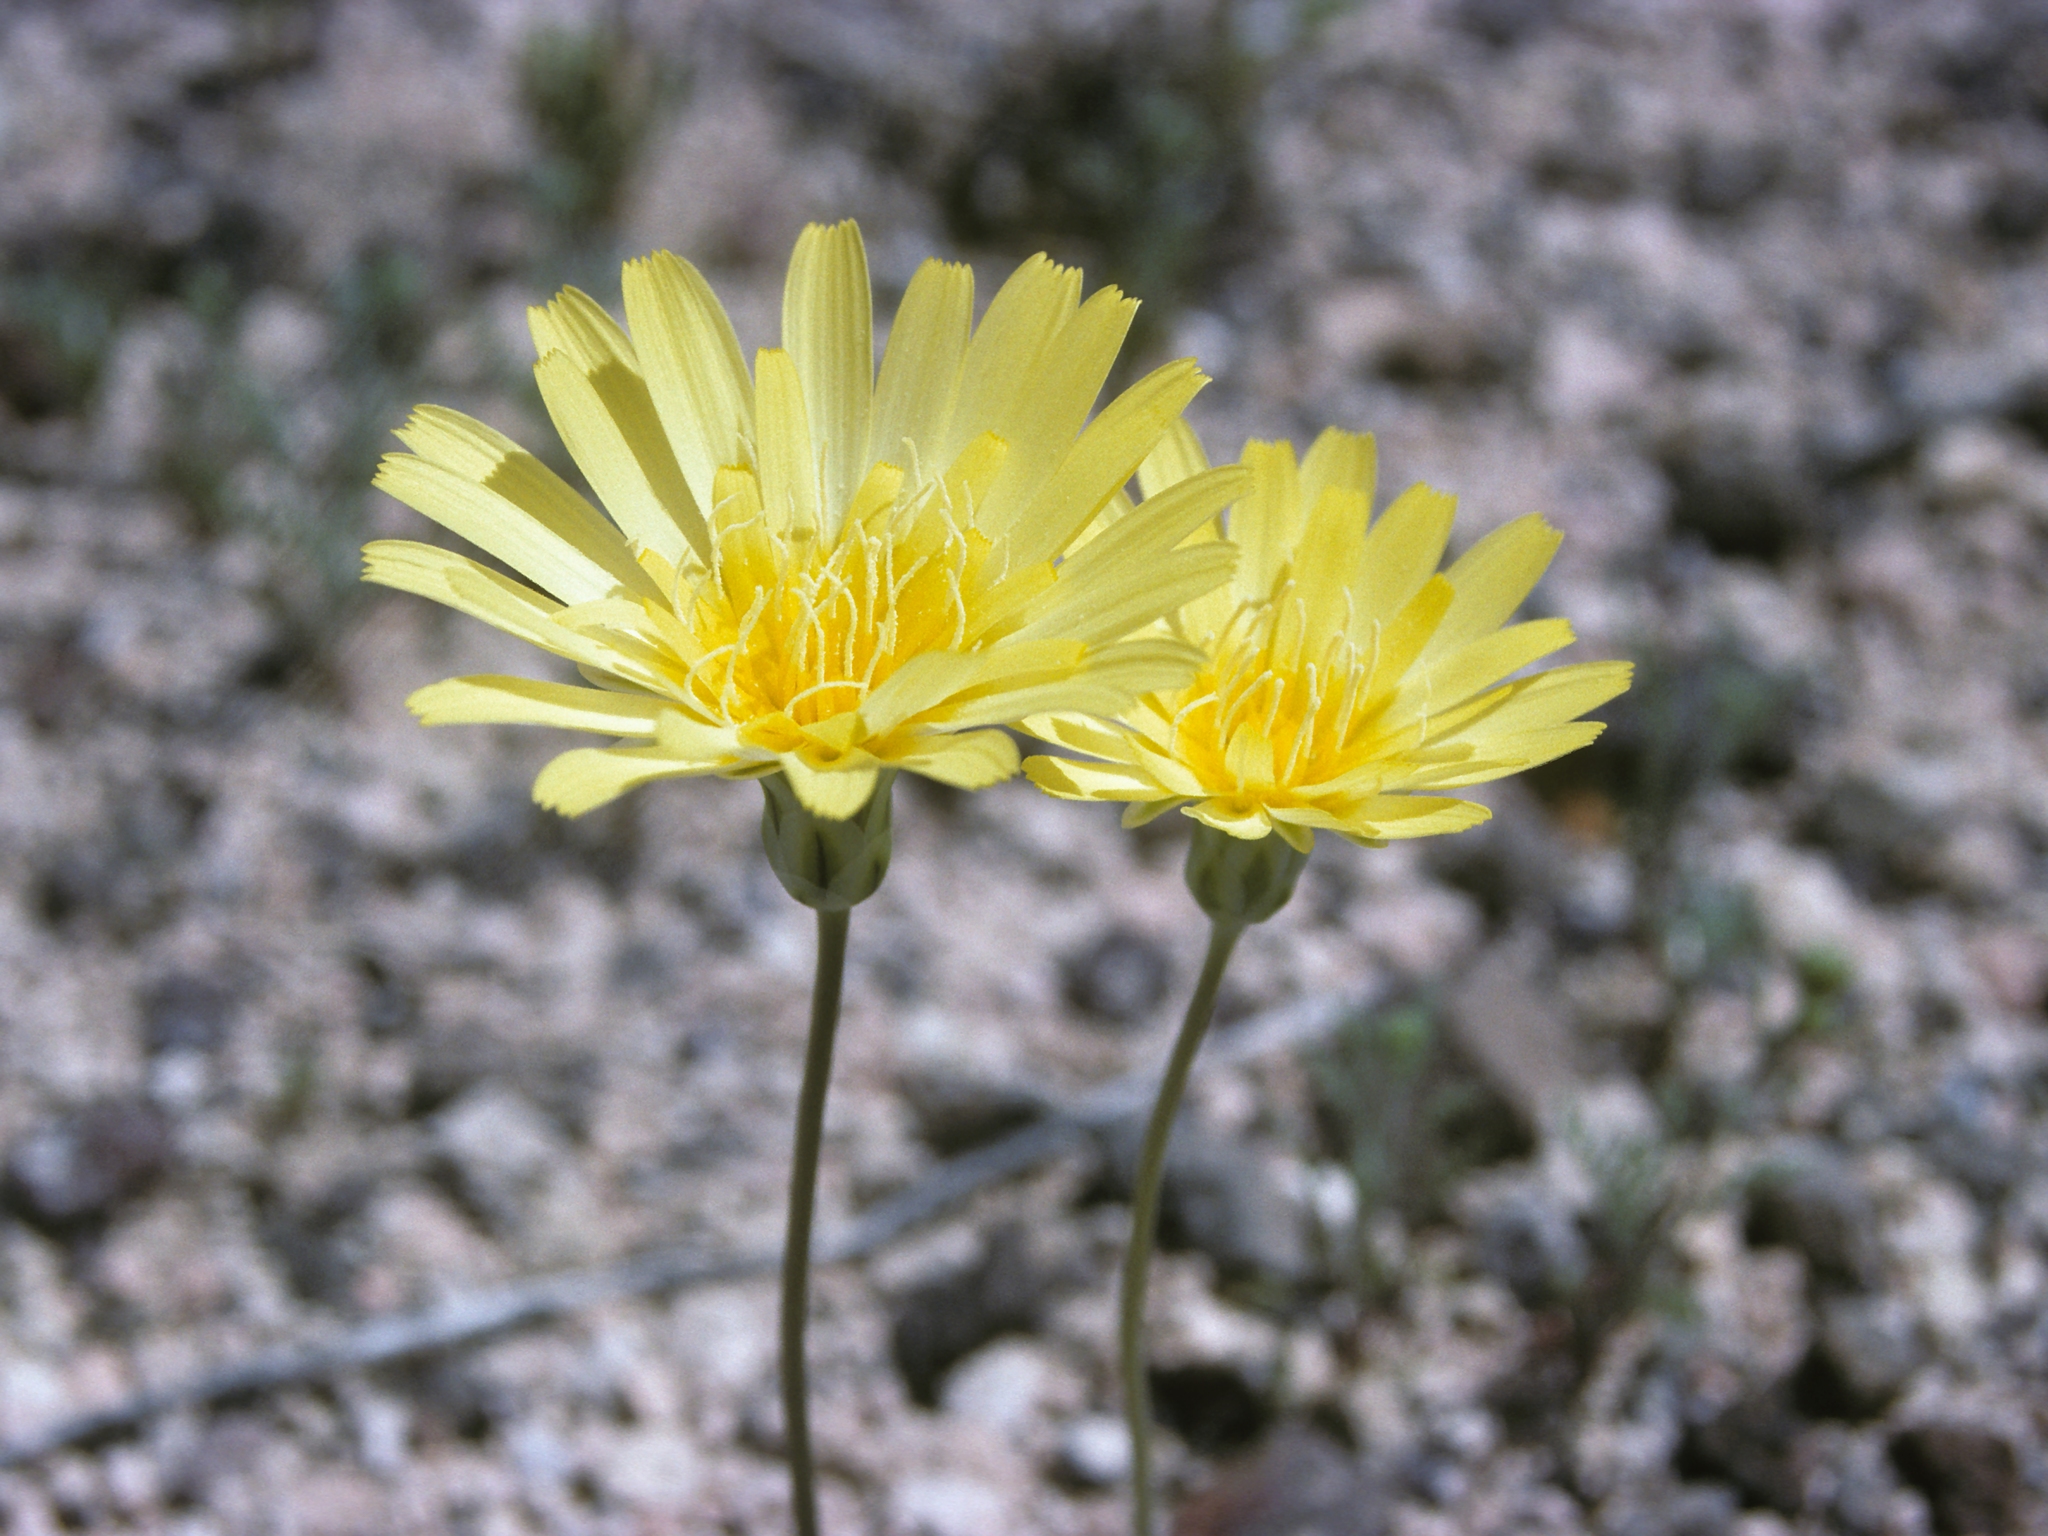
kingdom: Plantae
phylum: Tracheophyta
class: Magnoliopsida
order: Asterales
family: Asteraceae
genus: Anisocoma
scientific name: Anisocoma acaulis
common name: Scalebud
